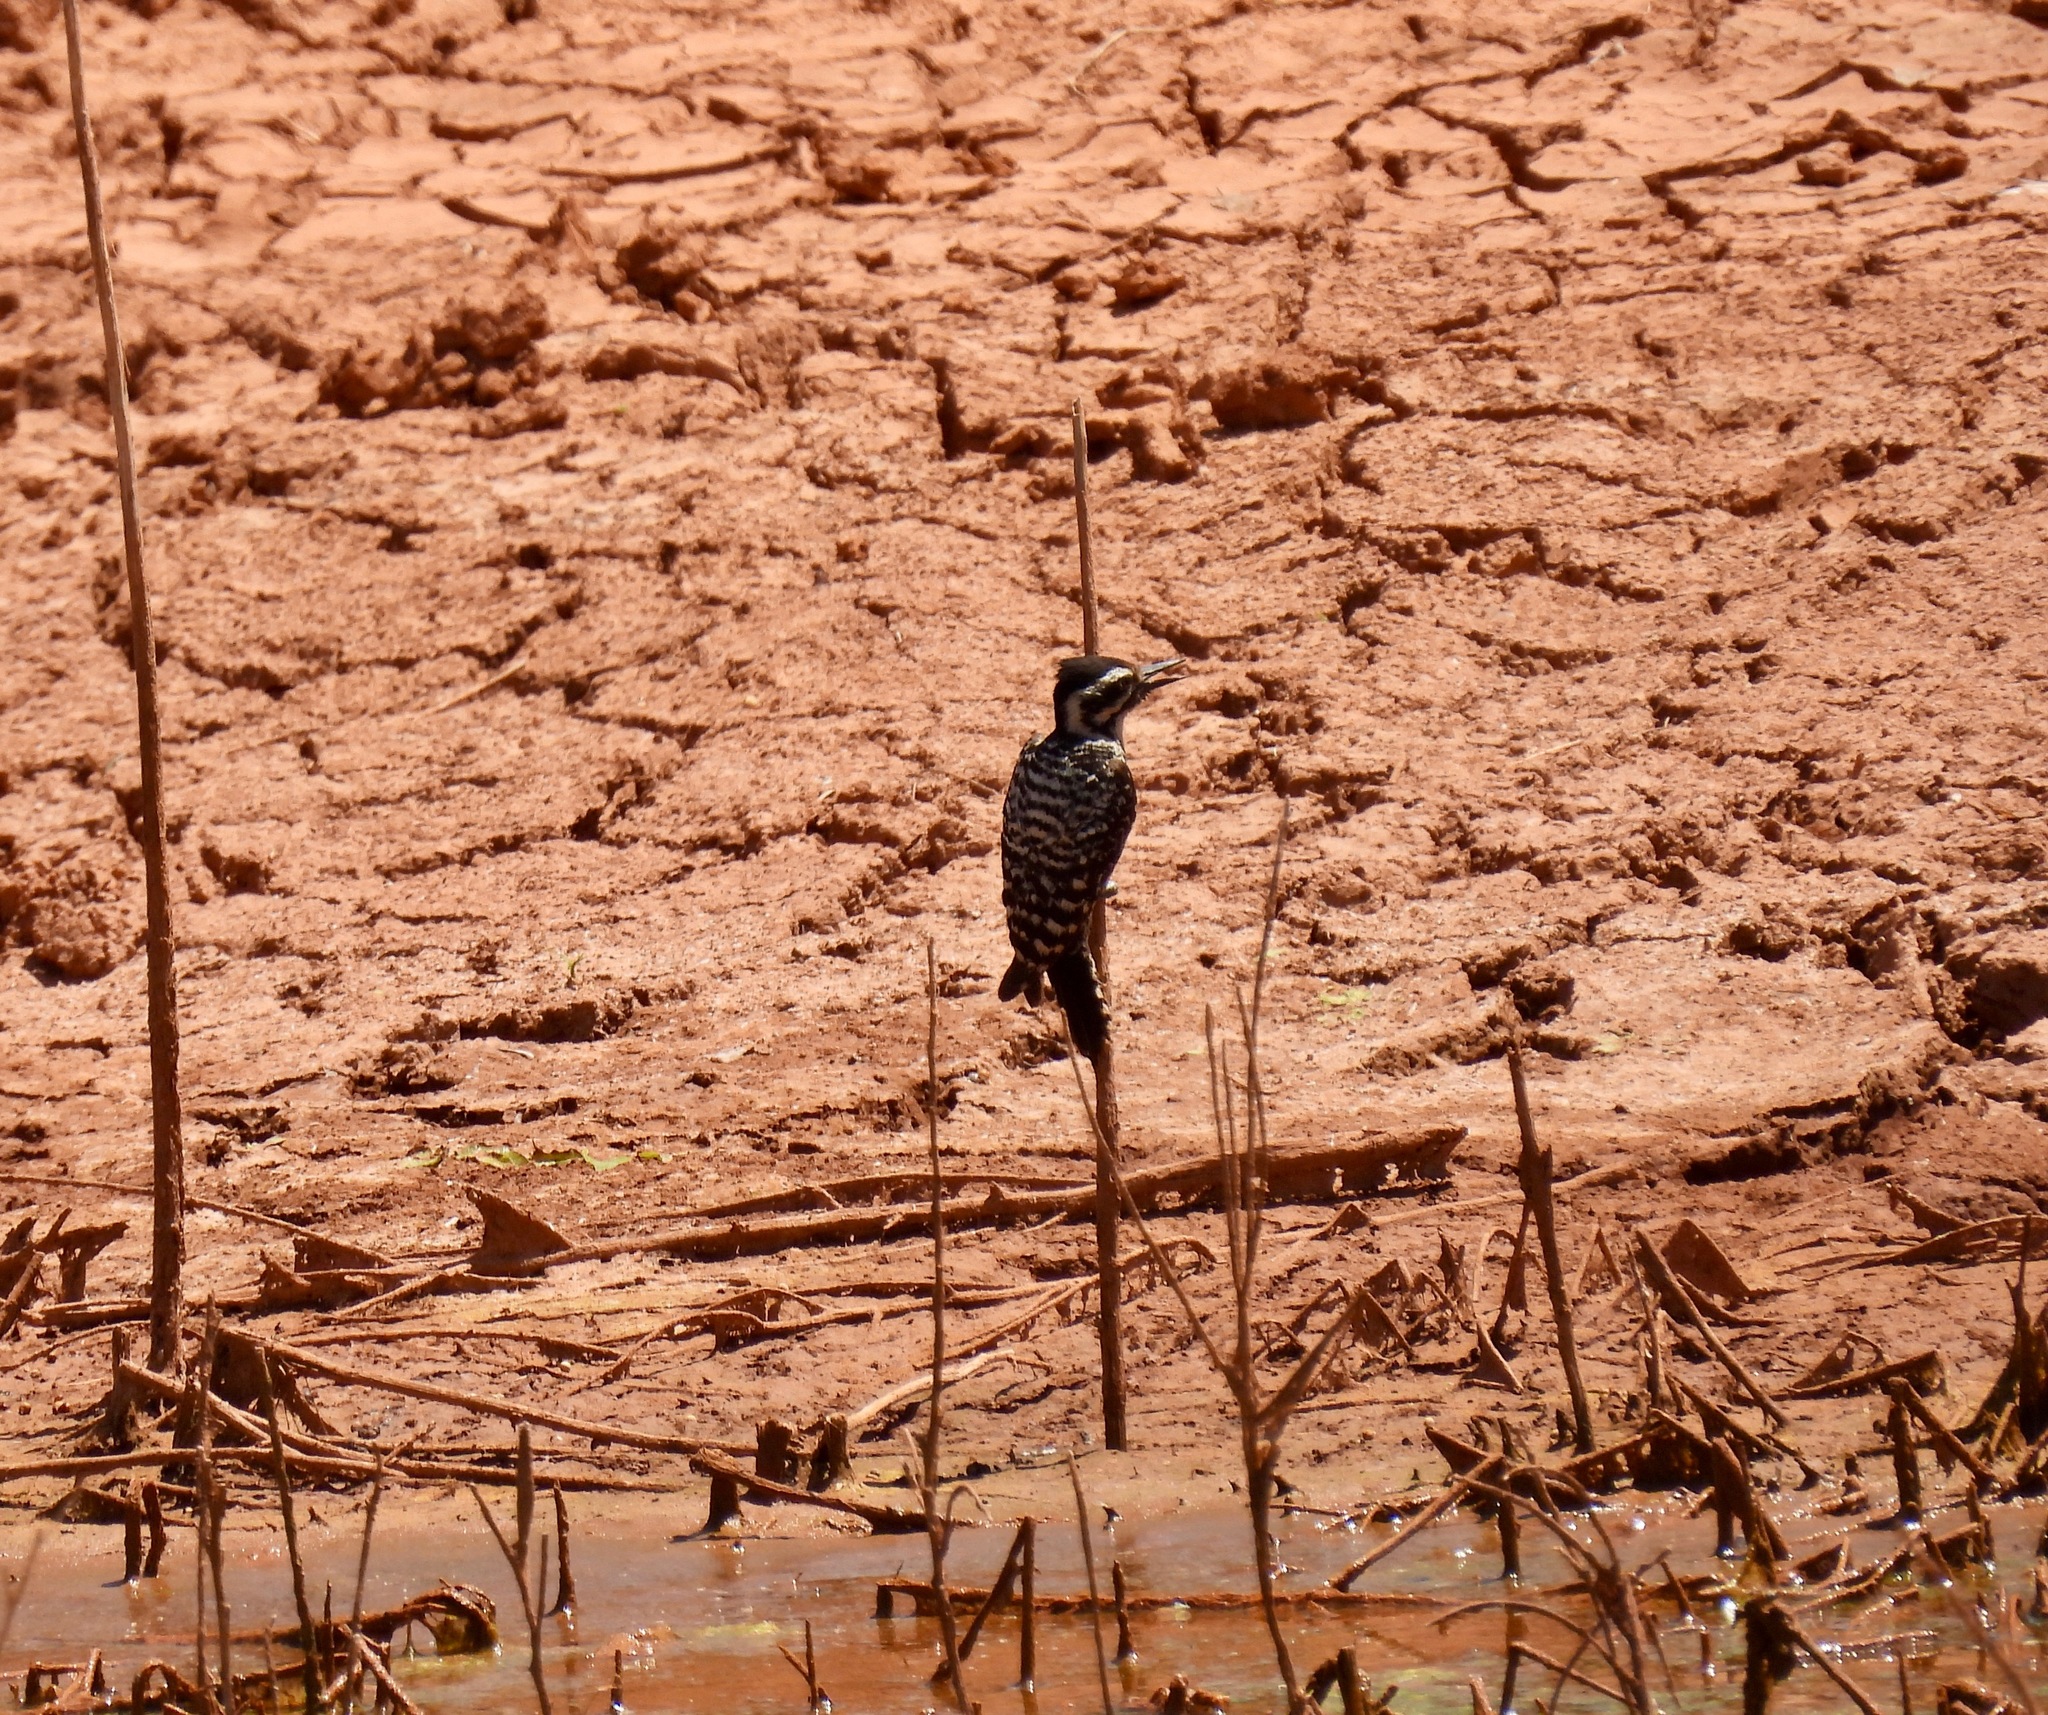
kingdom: Animalia
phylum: Chordata
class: Aves
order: Piciformes
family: Picidae
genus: Dryobates
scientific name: Dryobates scalaris
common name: Ladder-backed woodpecker
